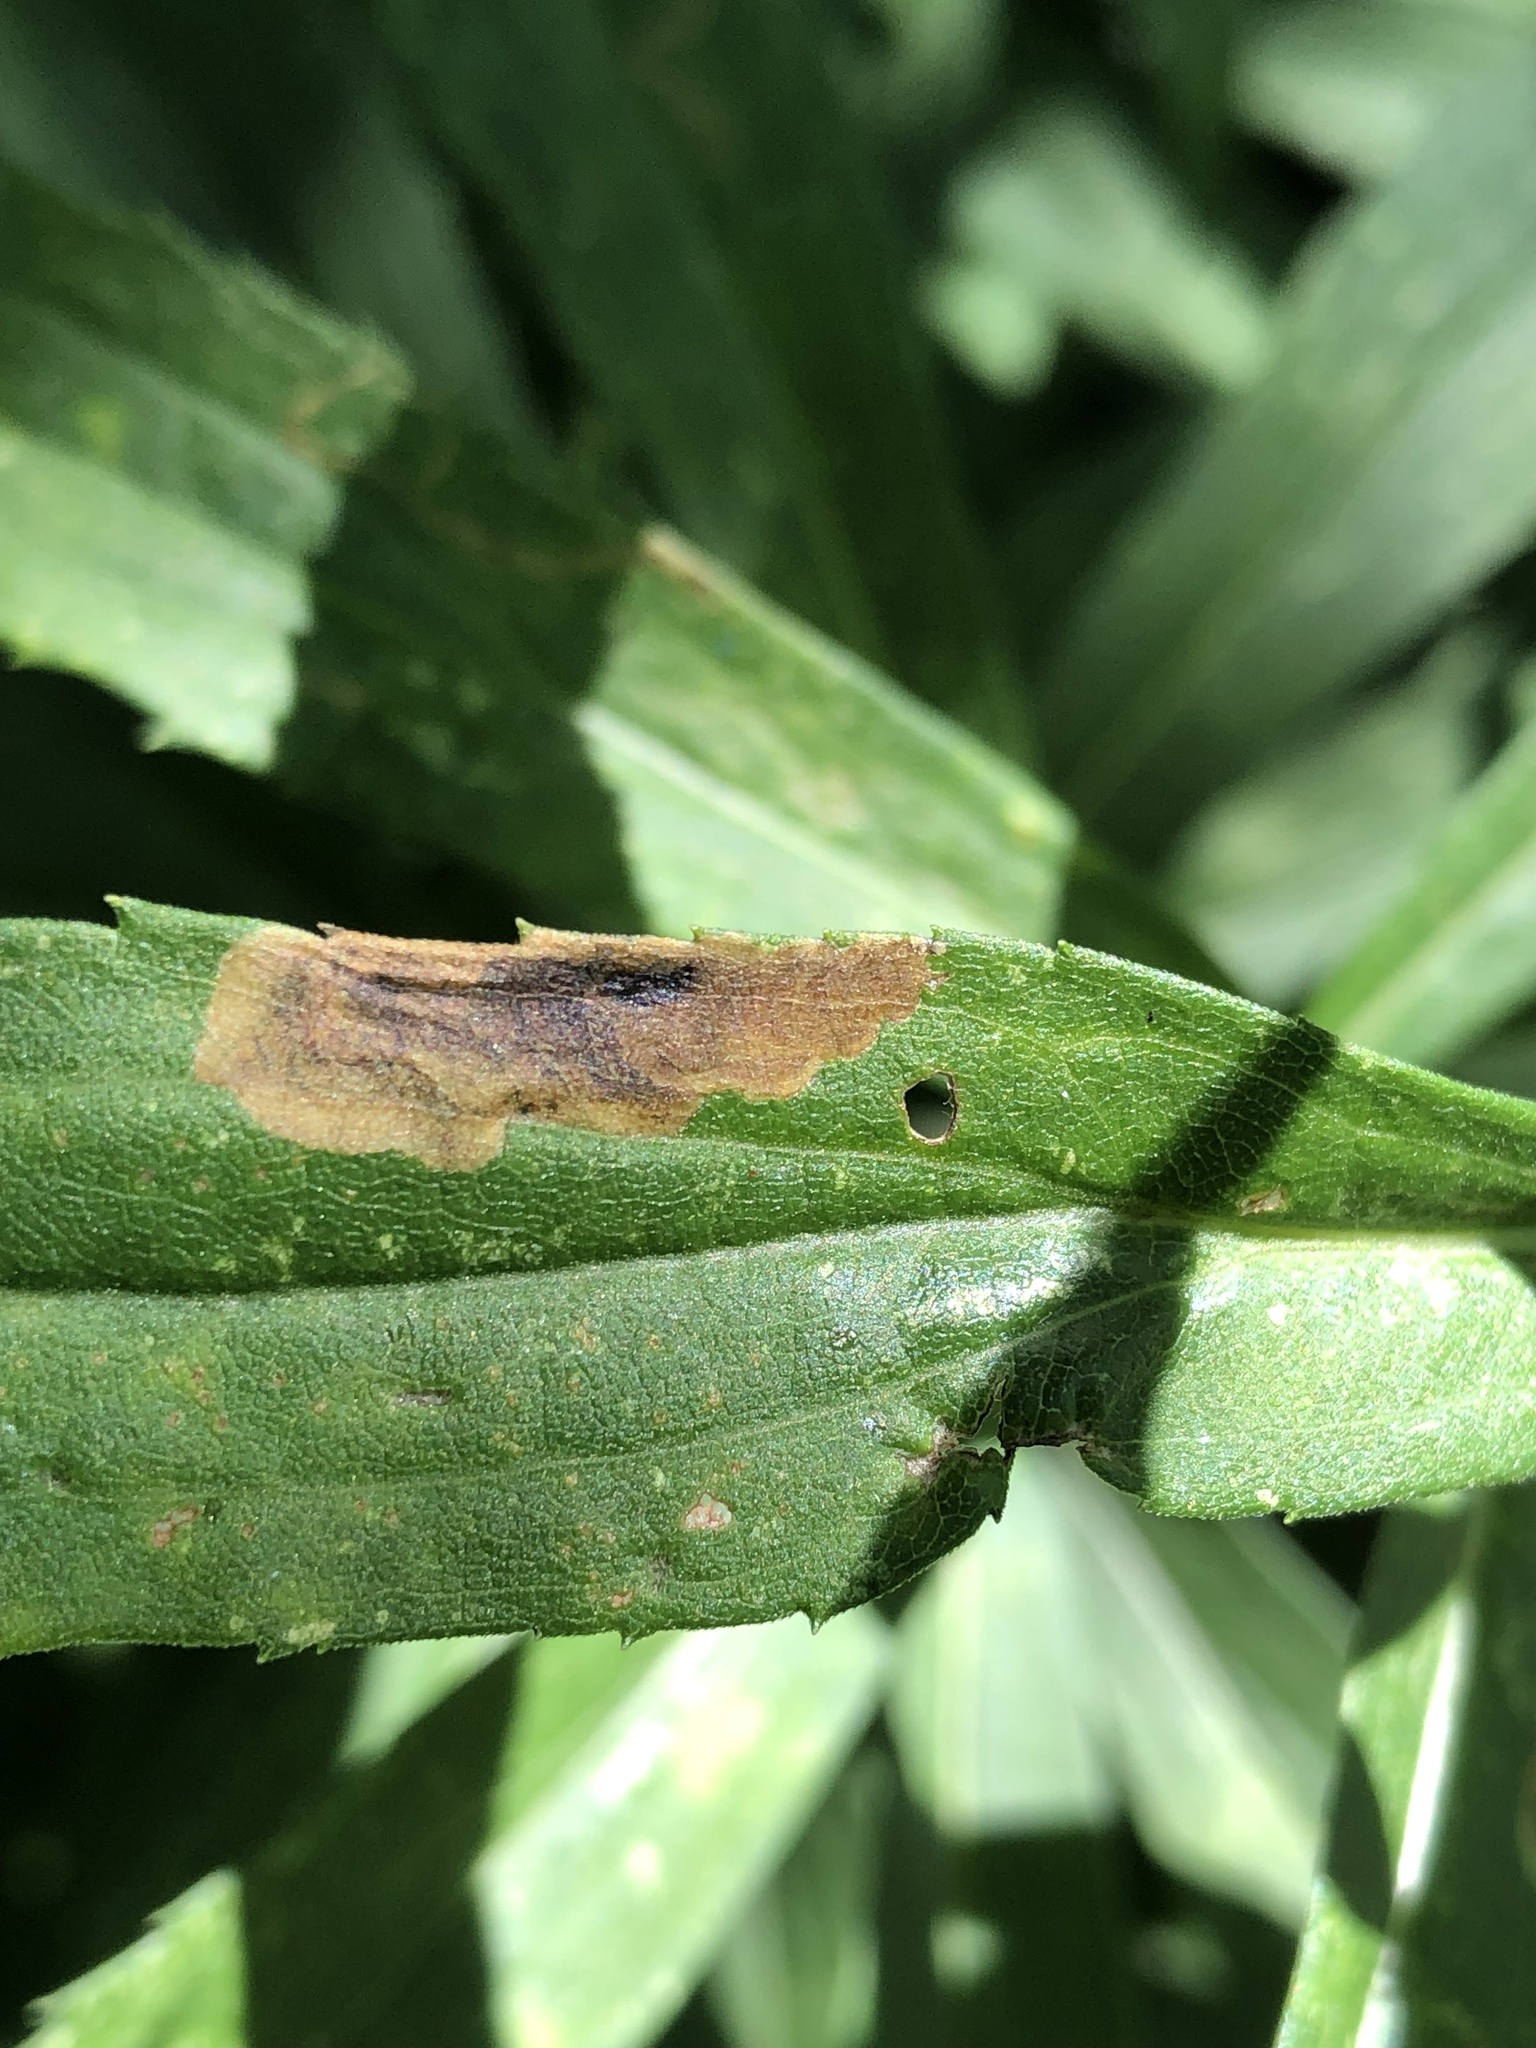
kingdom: Animalia
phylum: Arthropoda
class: Insecta
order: Diptera
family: Agromyzidae
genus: Nemorimyza
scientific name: Nemorimyza posticata
